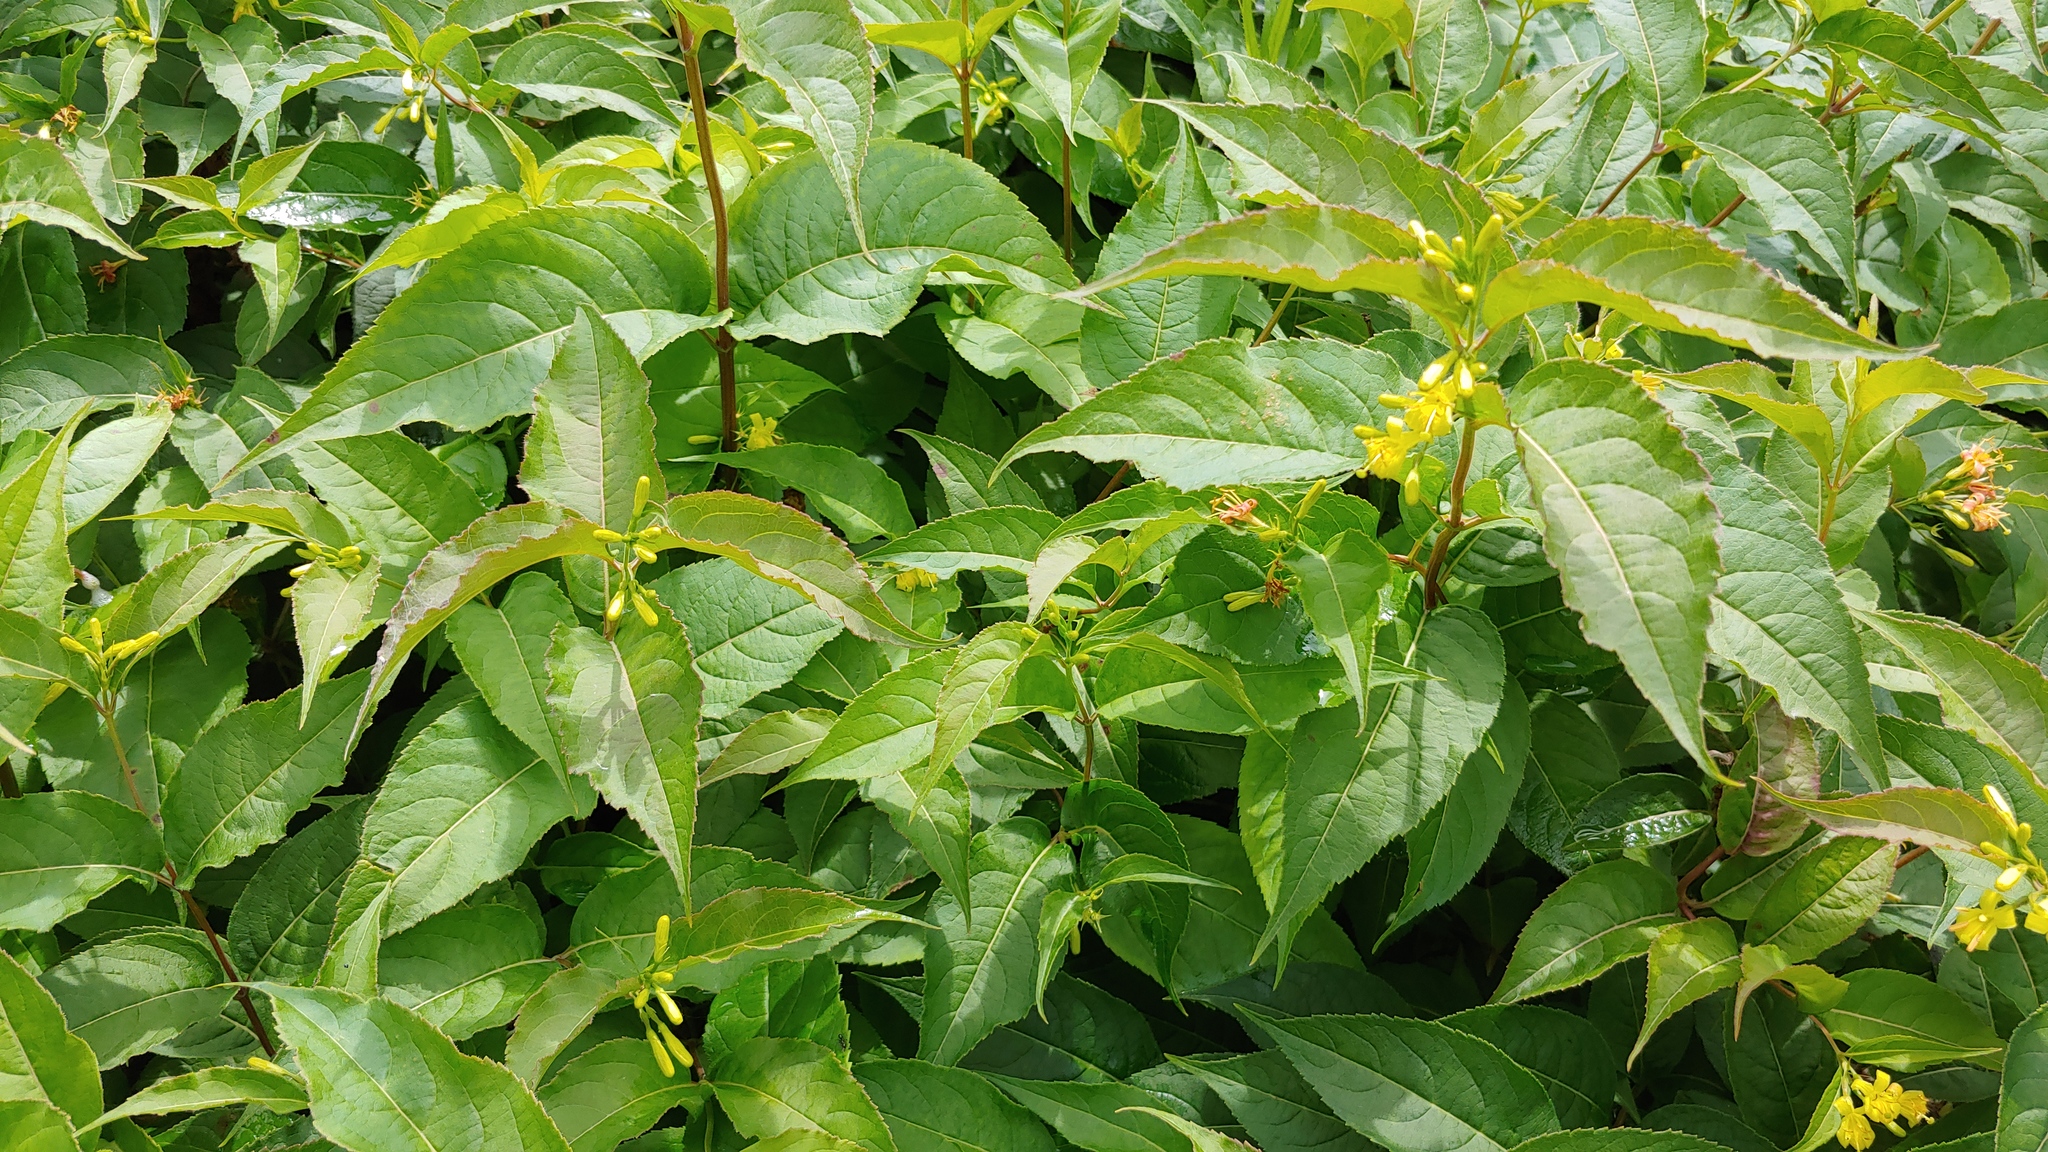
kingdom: Plantae
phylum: Tracheophyta
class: Magnoliopsida
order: Dipsacales
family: Caprifoliaceae
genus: Diervilla
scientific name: Diervilla lonicera
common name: Bush-honeysuckle
